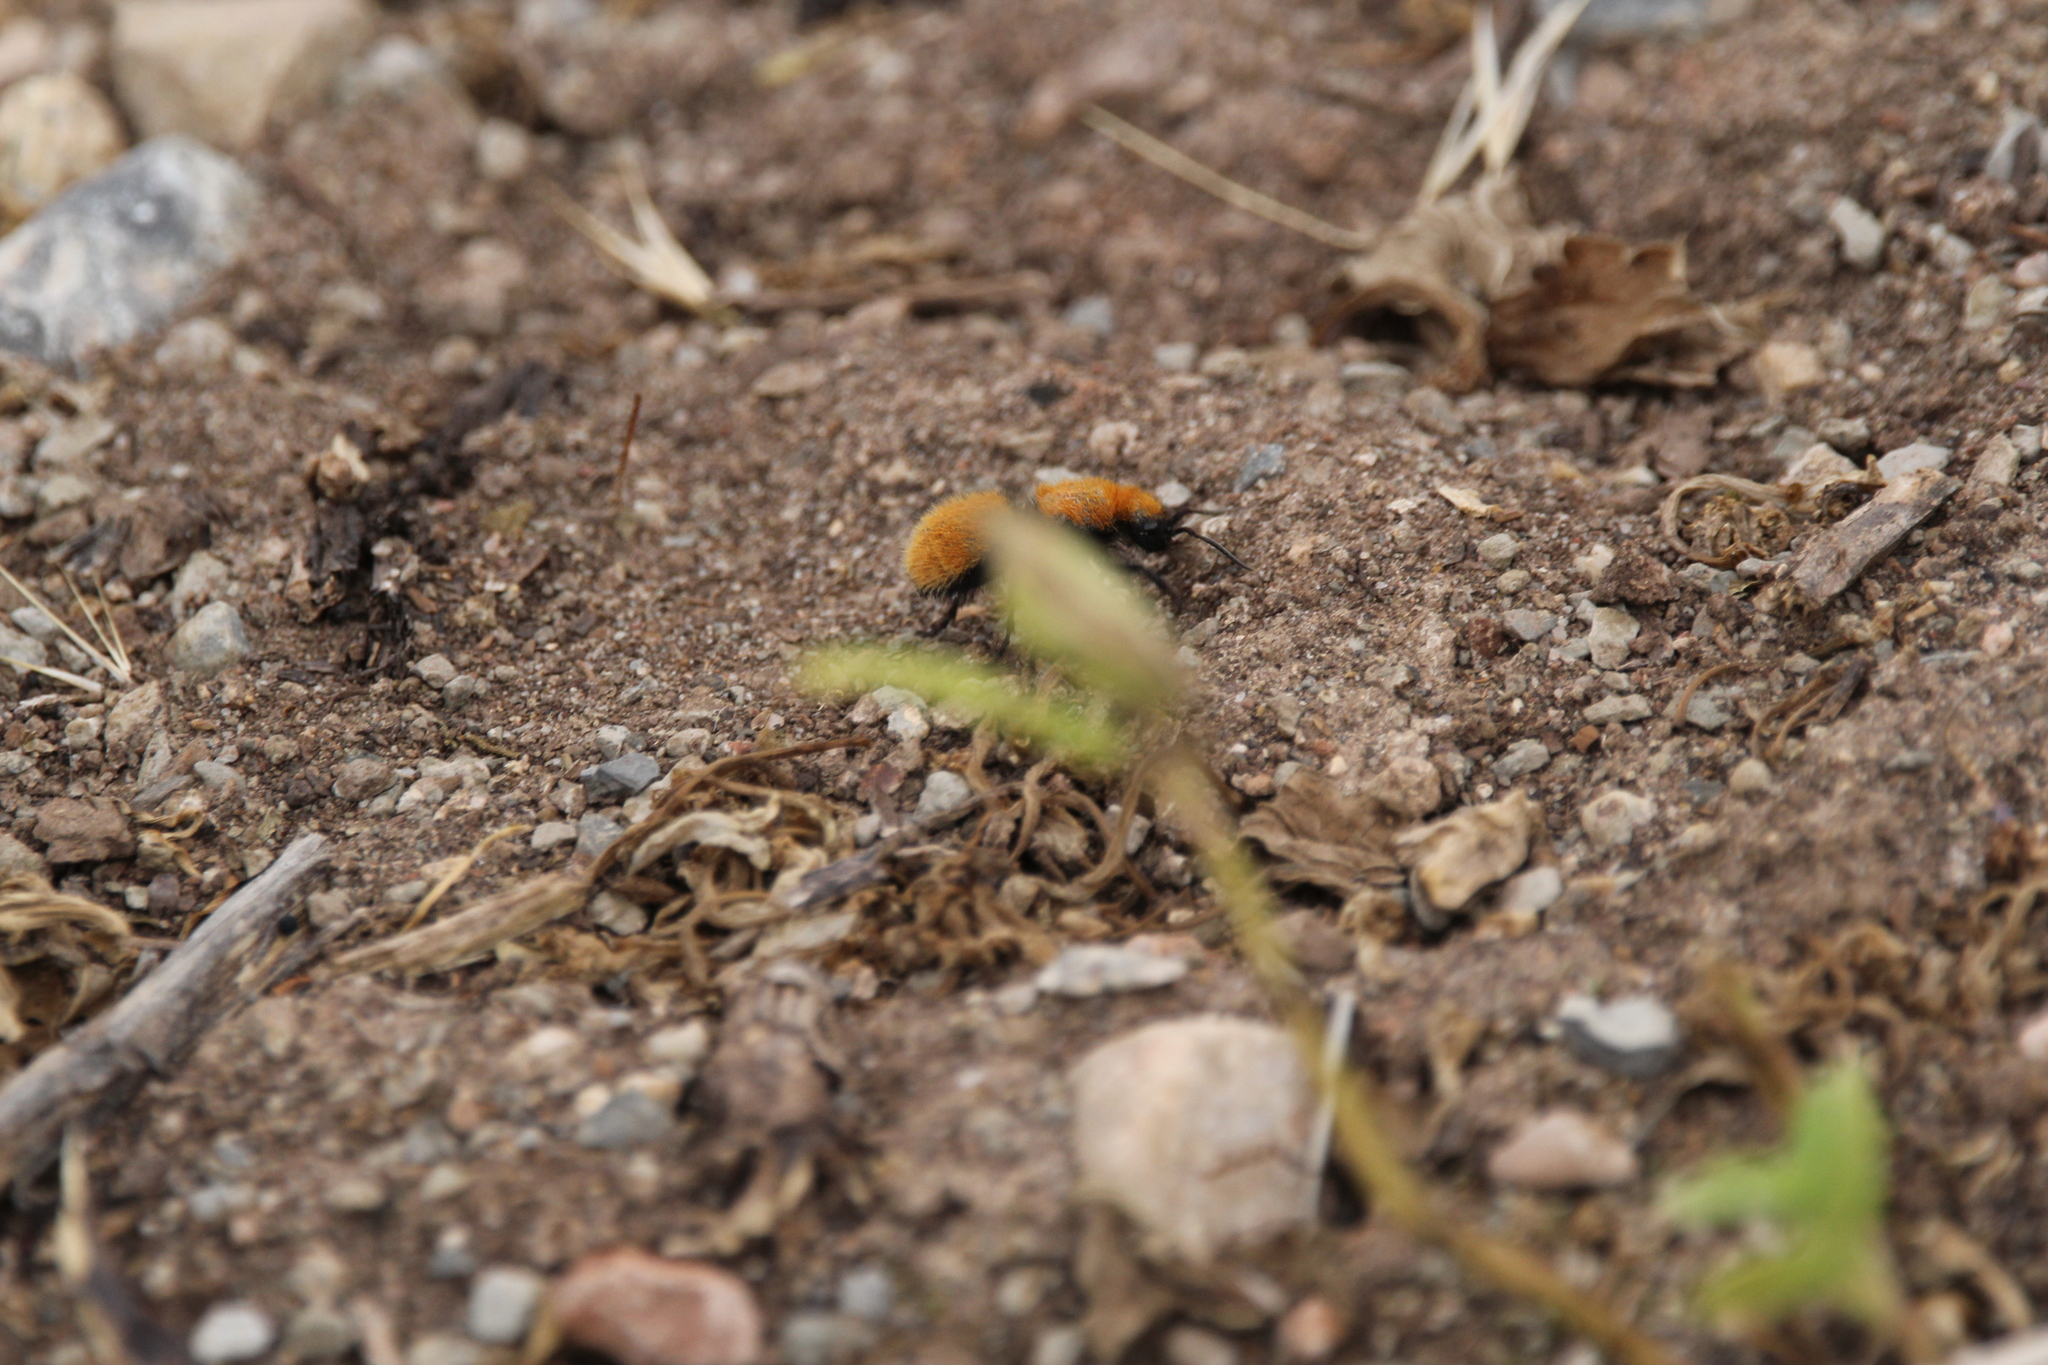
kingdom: Animalia
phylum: Arthropoda
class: Insecta
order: Hymenoptera
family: Mutillidae
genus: Dasymutilla
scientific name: Dasymutilla vestita
